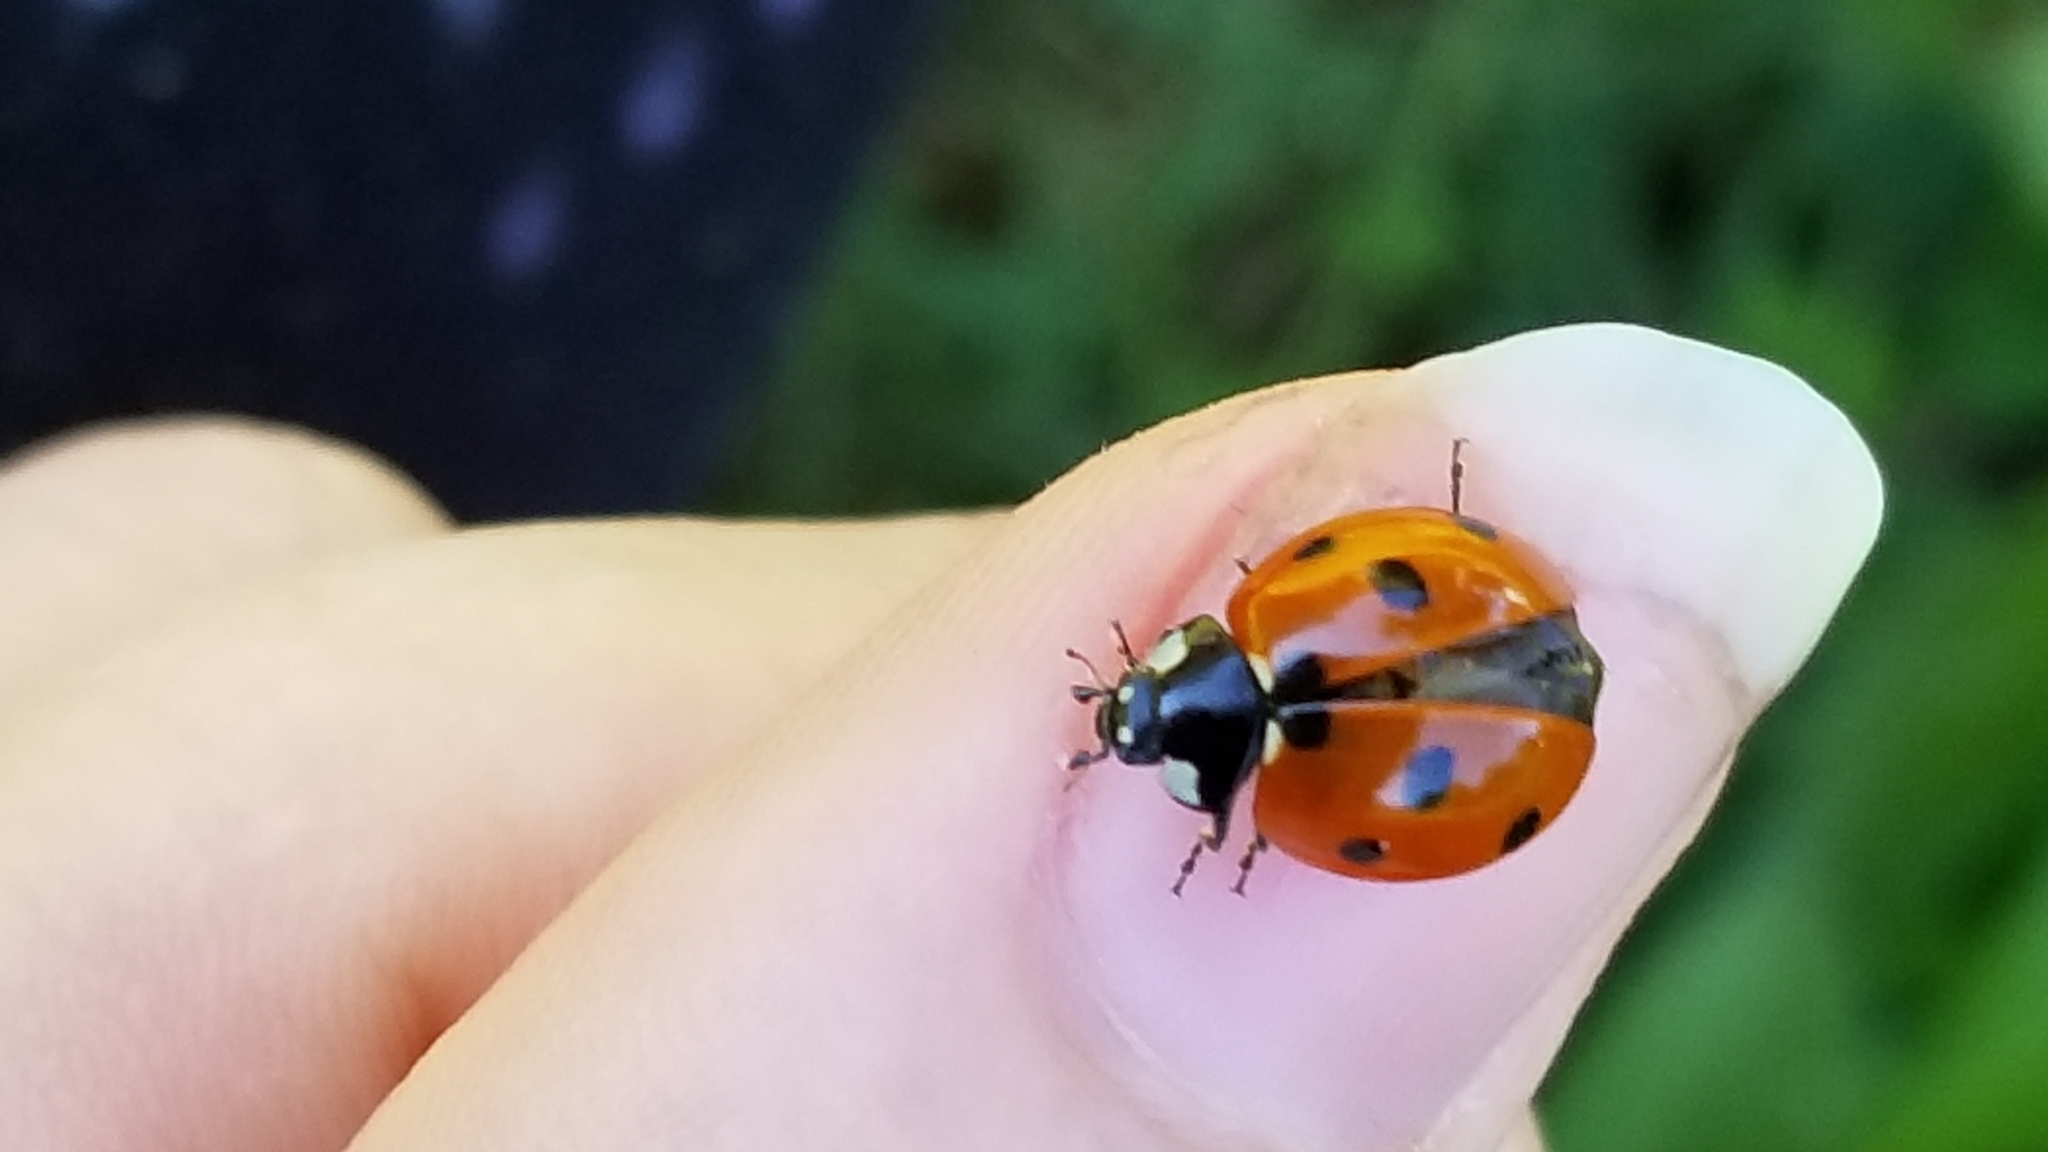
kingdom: Animalia
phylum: Arthropoda
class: Insecta
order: Coleoptera
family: Coccinellidae
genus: Coccinella
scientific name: Coccinella septempunctata
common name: Sevenspotted lady beetle
